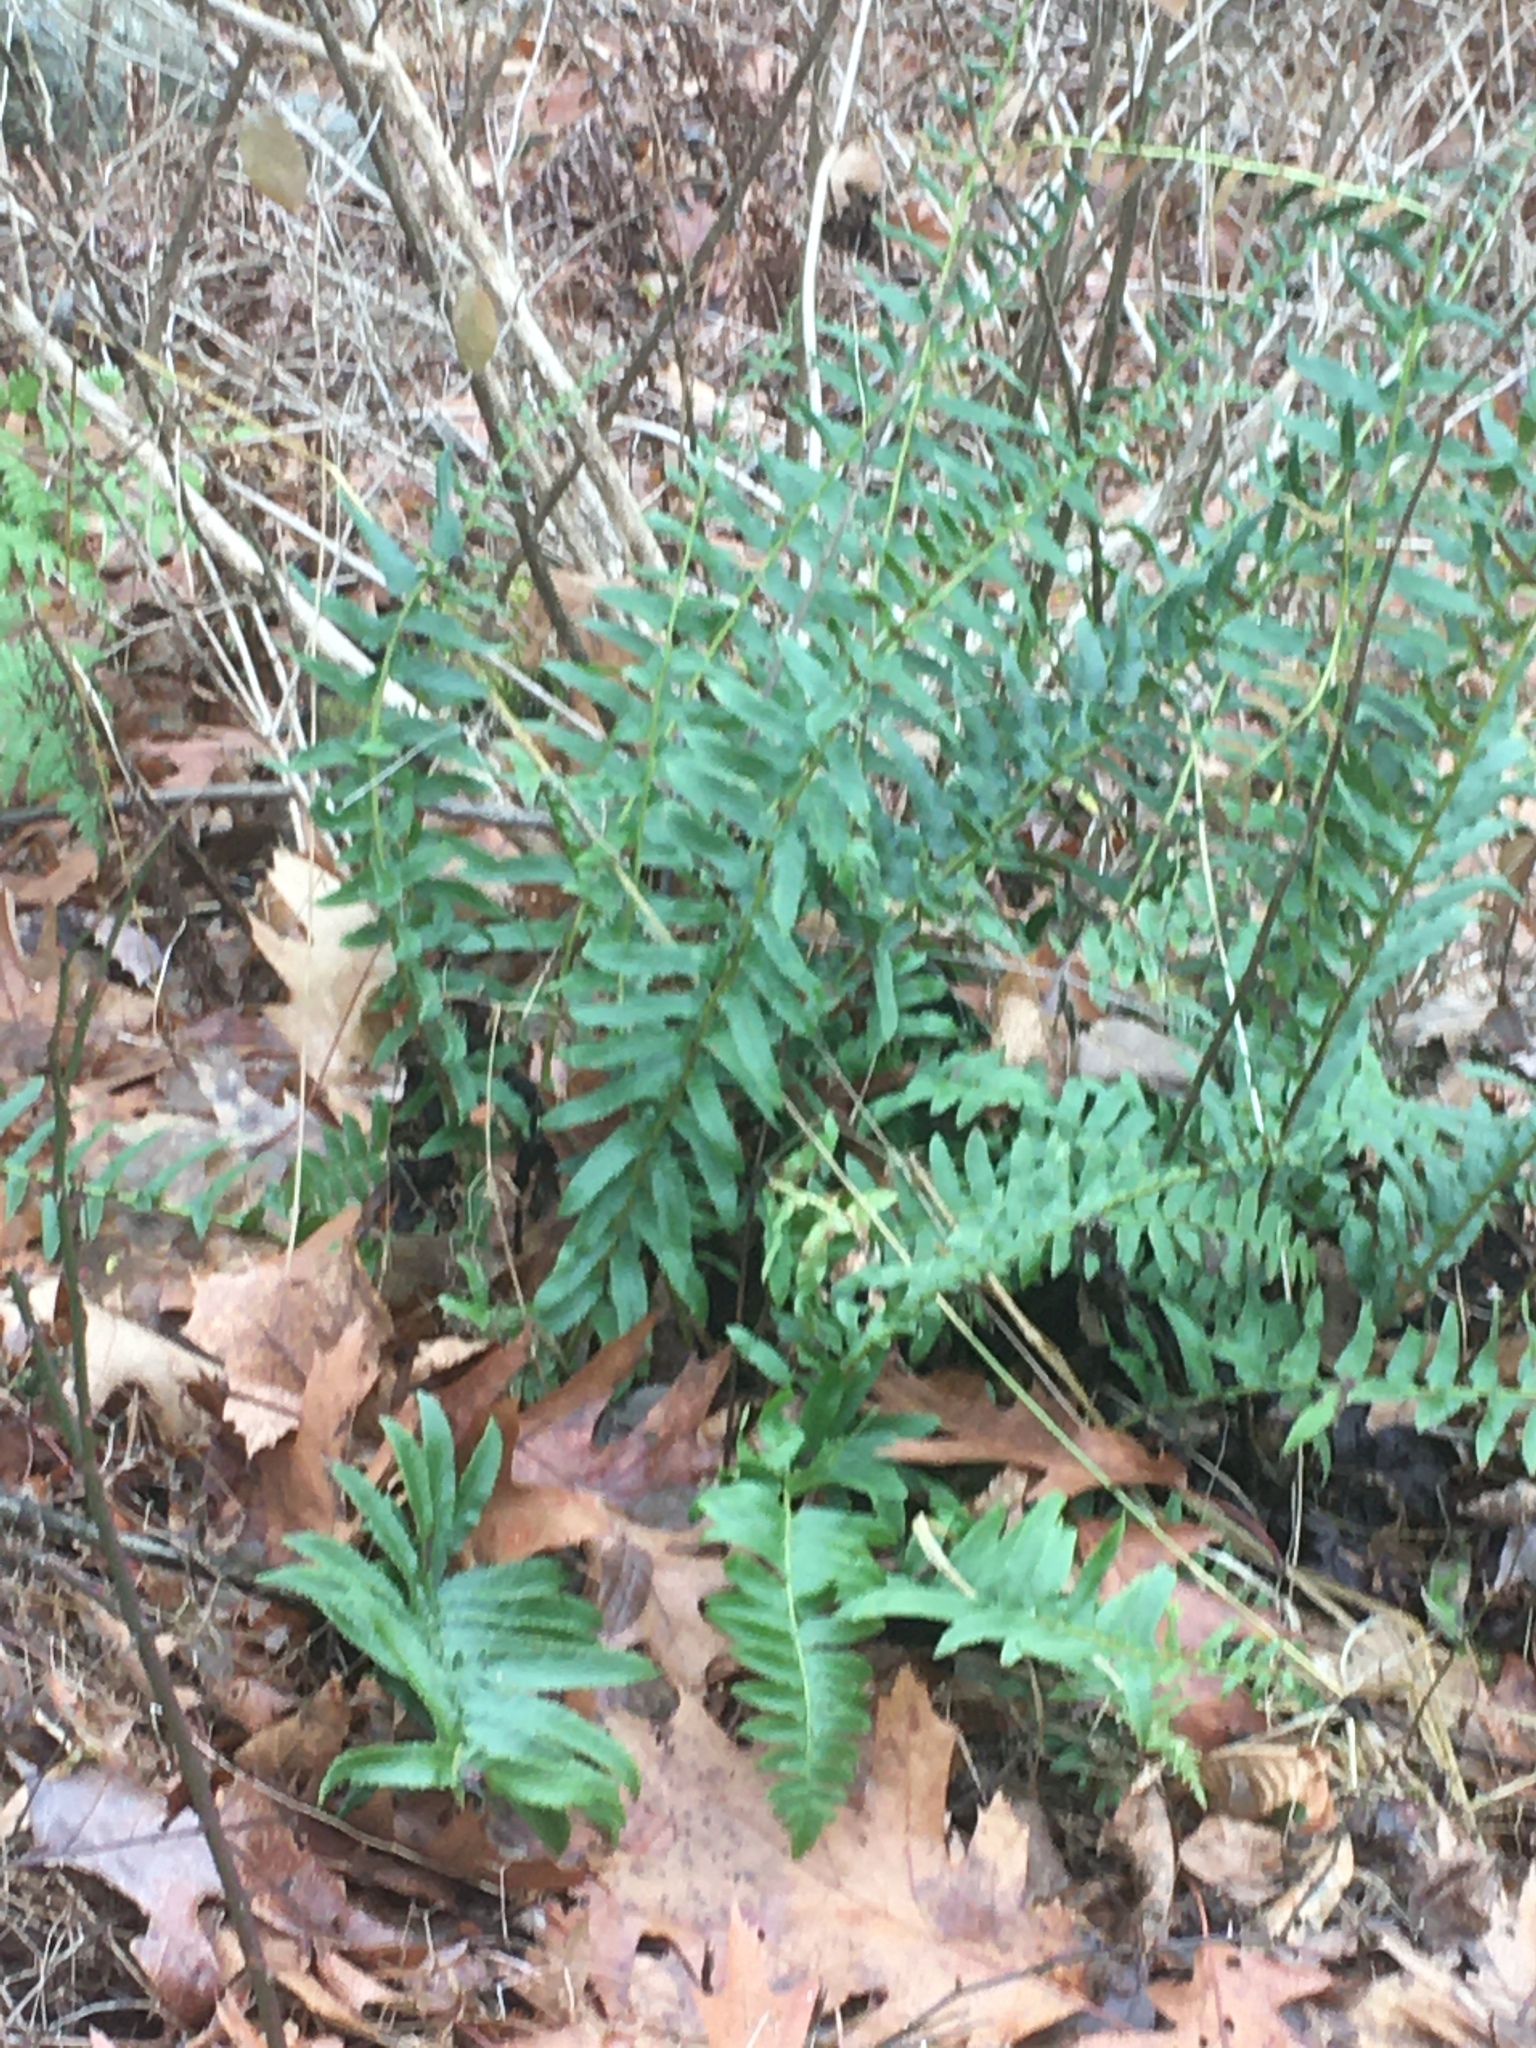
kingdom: Plantae
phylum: Tracheophyta
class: Polypodiopsida
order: Polypodiales
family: Dryopteridaceae
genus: Polystichum
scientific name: Polystichum acrostichoides
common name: Christmas fern
